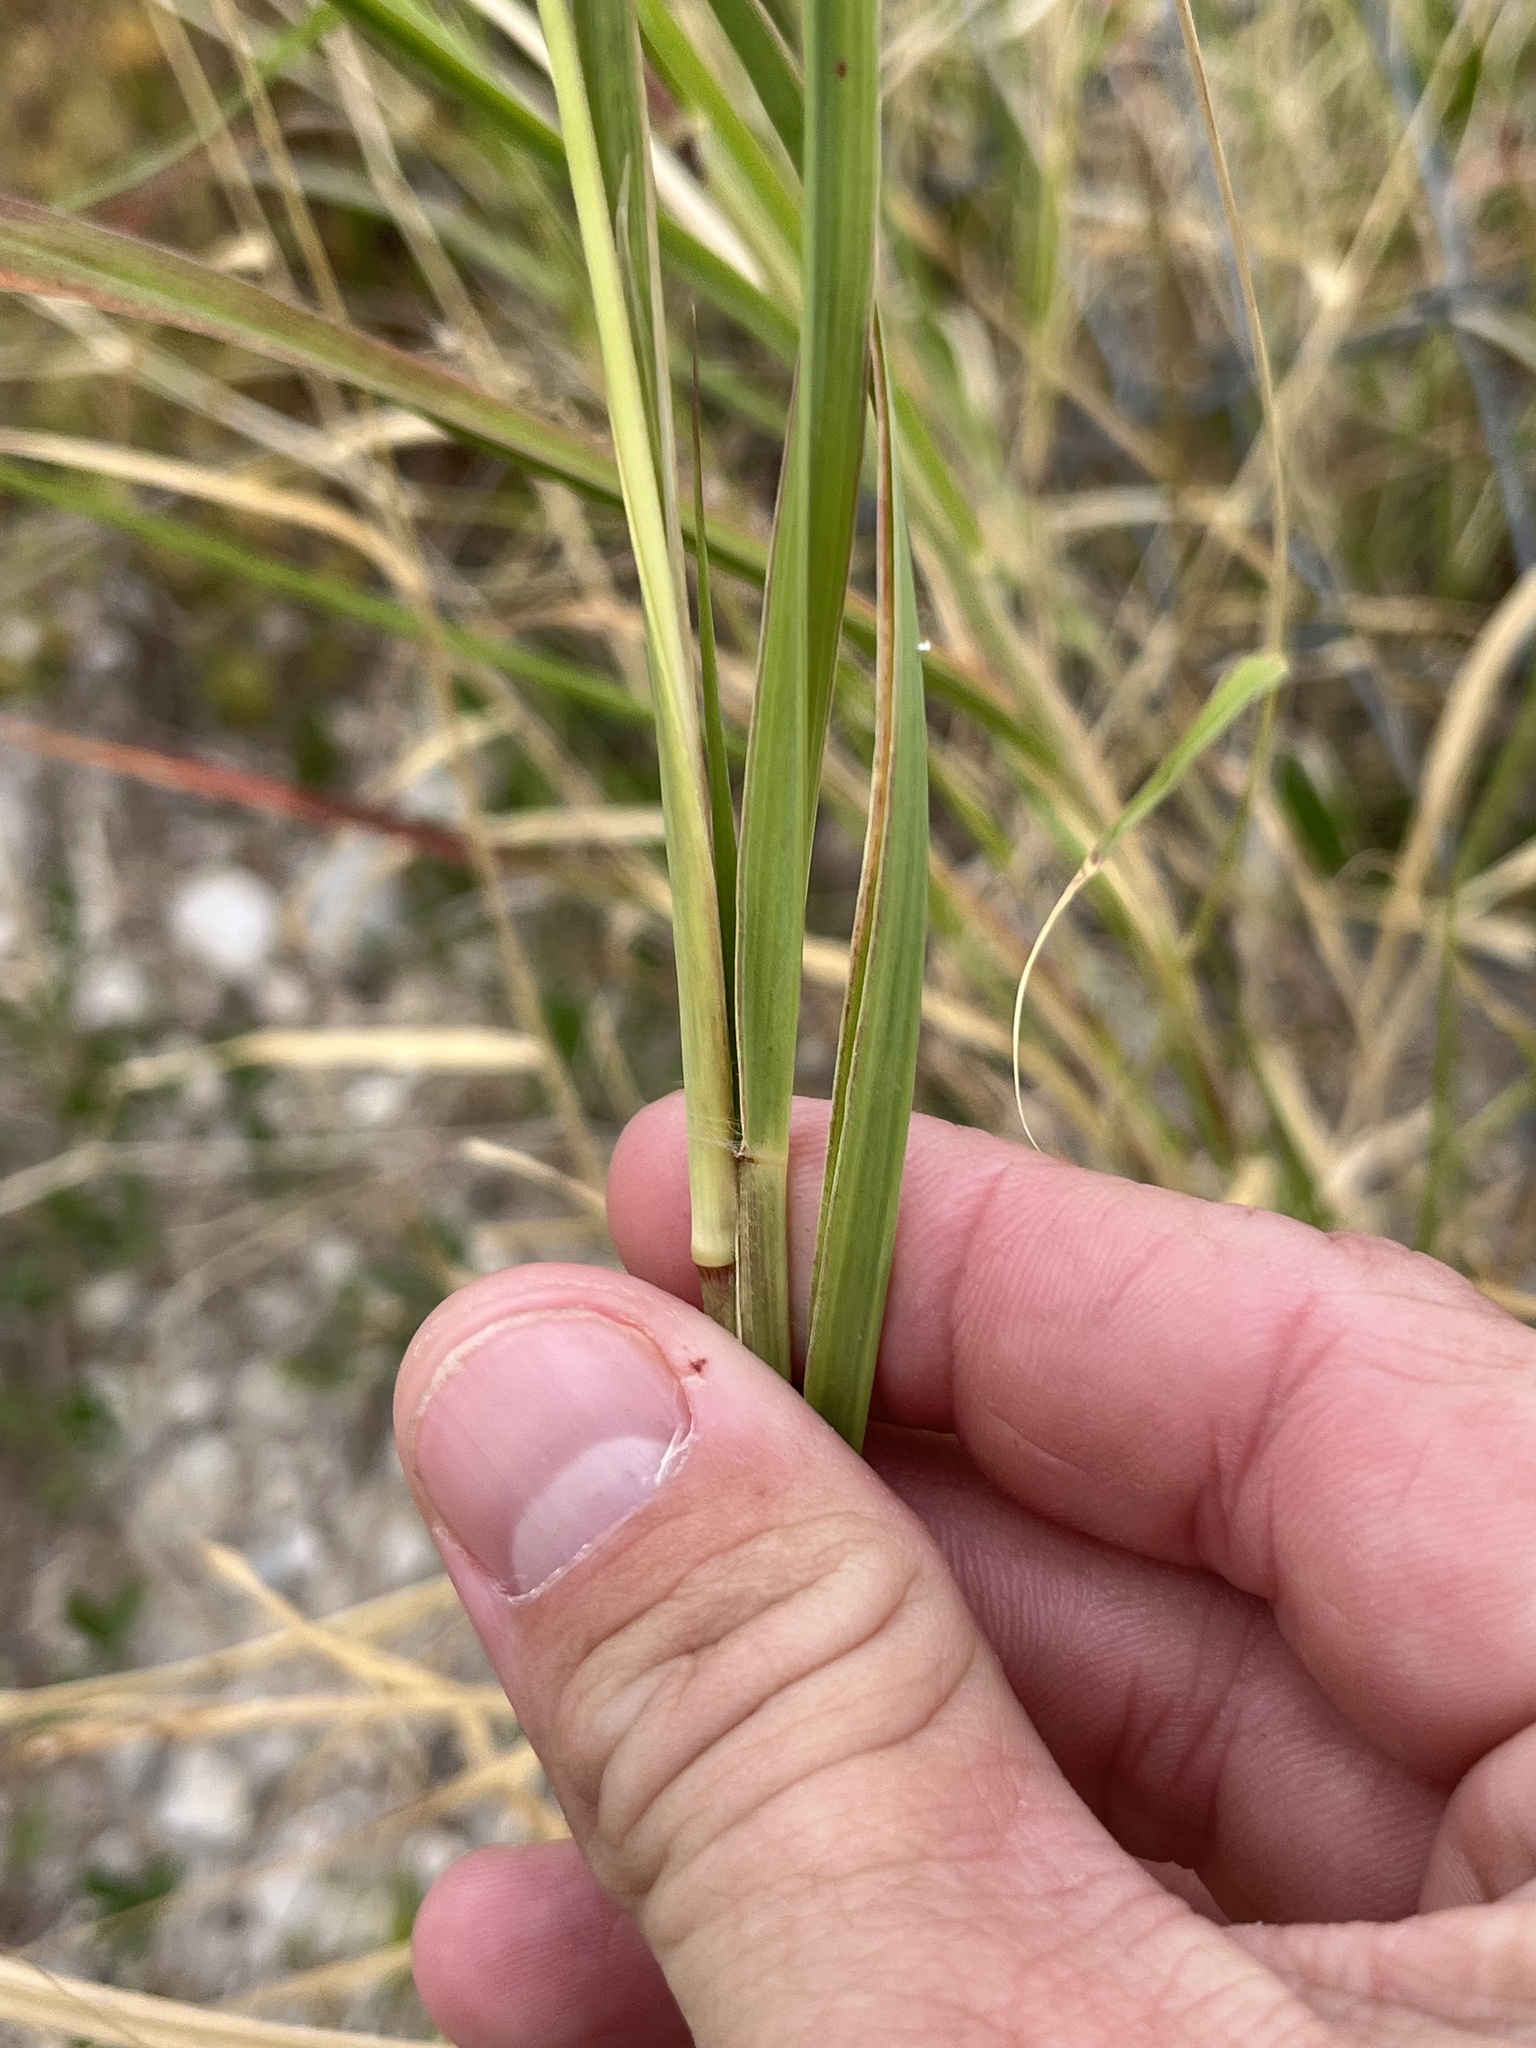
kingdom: Plantae
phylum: Tracheophyta
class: Liliopsida
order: Poales
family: Poaceae
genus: Cenchrus
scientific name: Cenchrus ciliaris
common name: Buffelgrass
